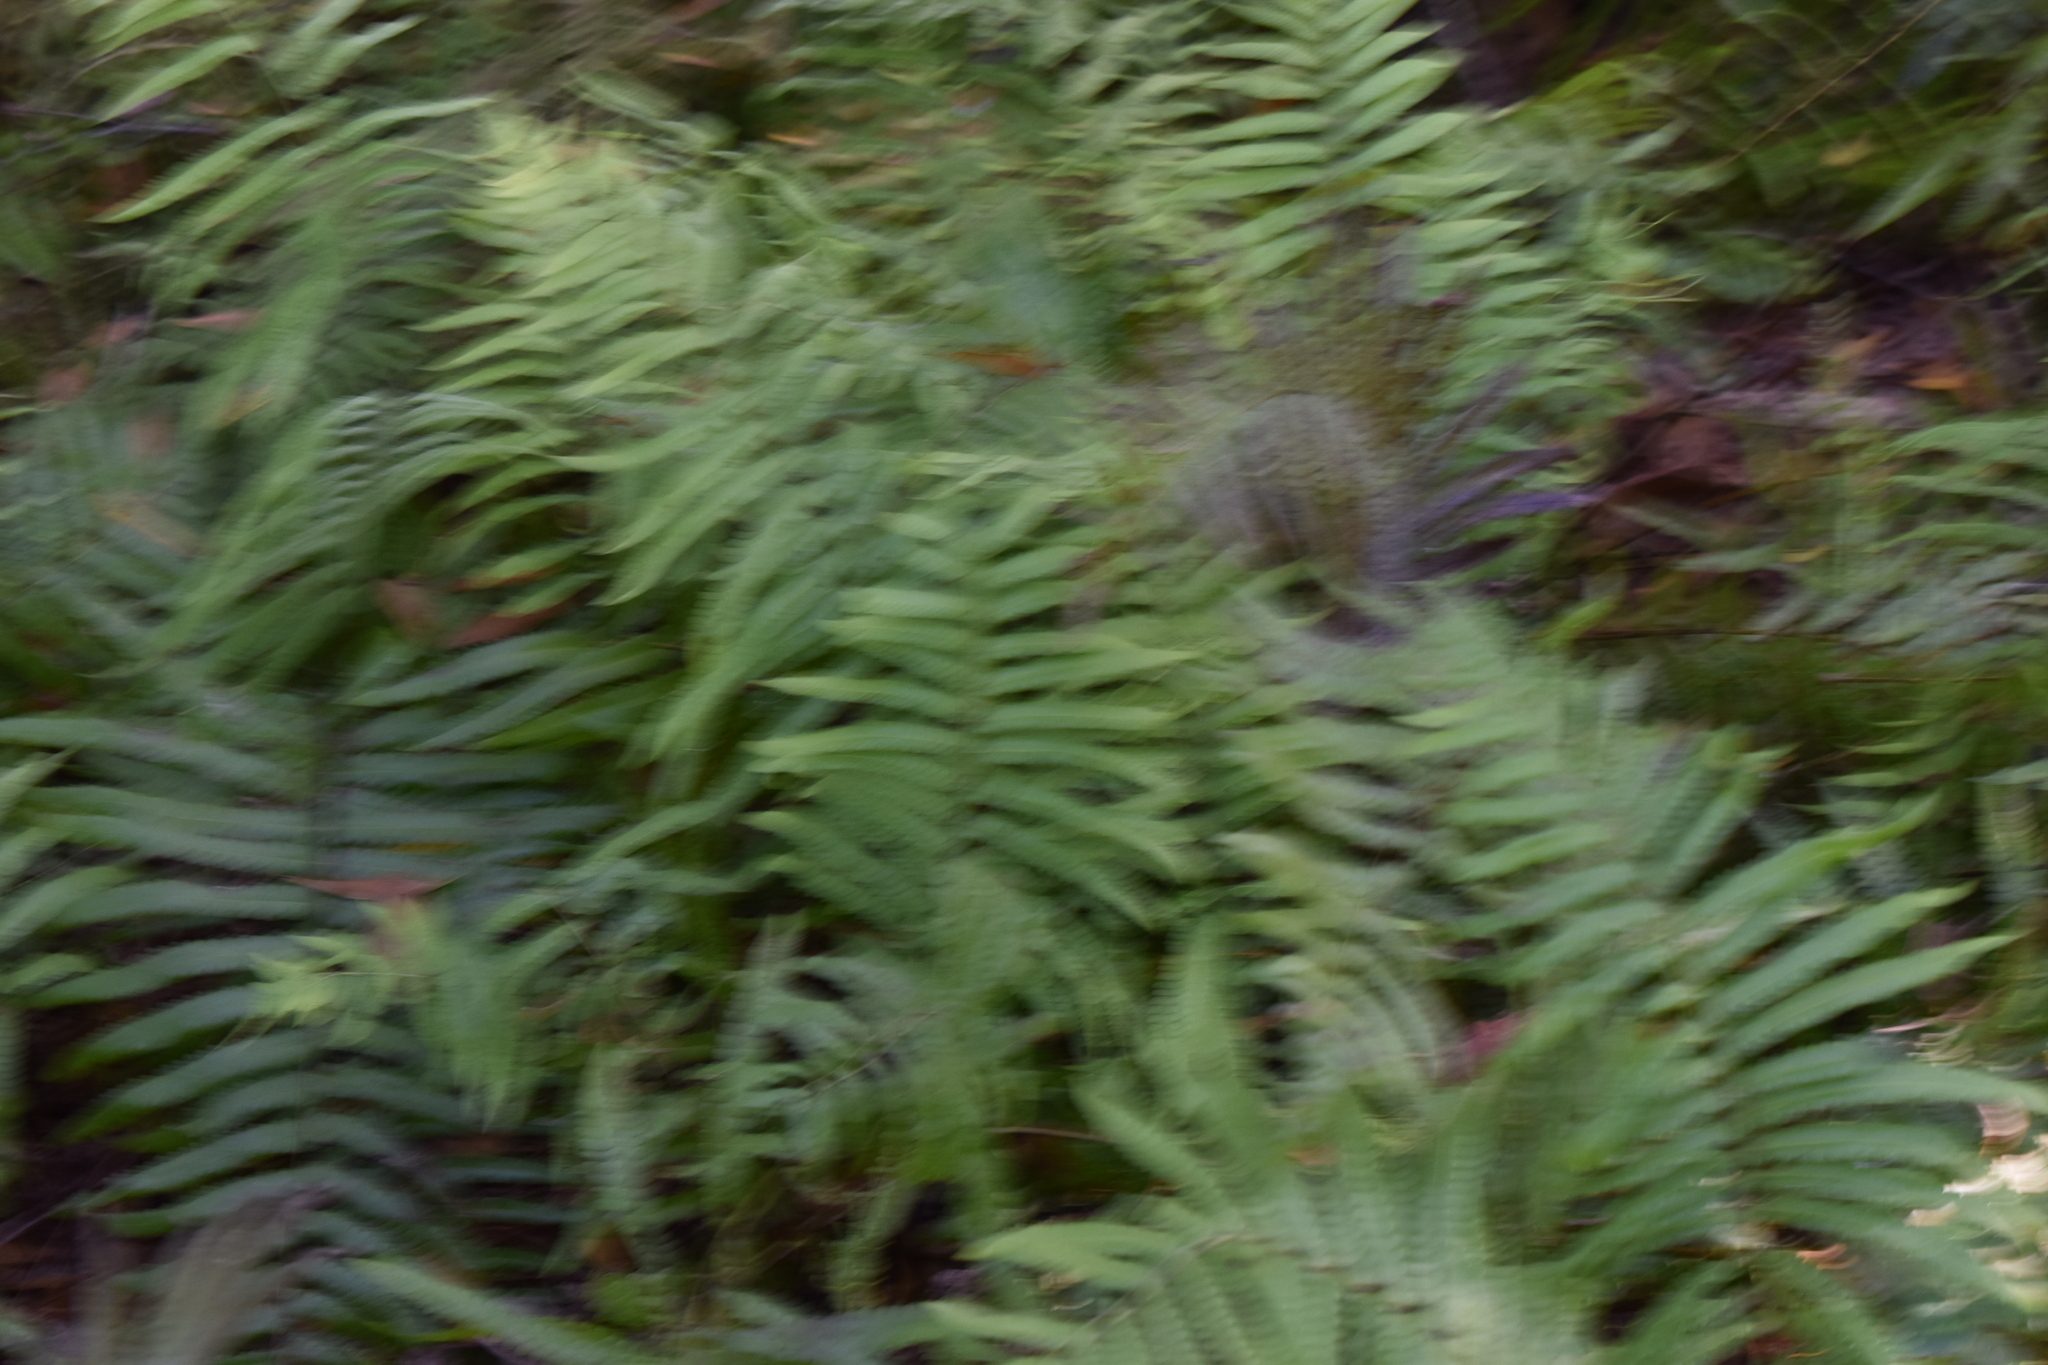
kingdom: Plantae
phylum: Tracheophyta
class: Polypodiopsida
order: Polypodiales
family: Blechnaceae
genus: Telmatoblechnum
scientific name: Telmatoblechnum serrulatum
